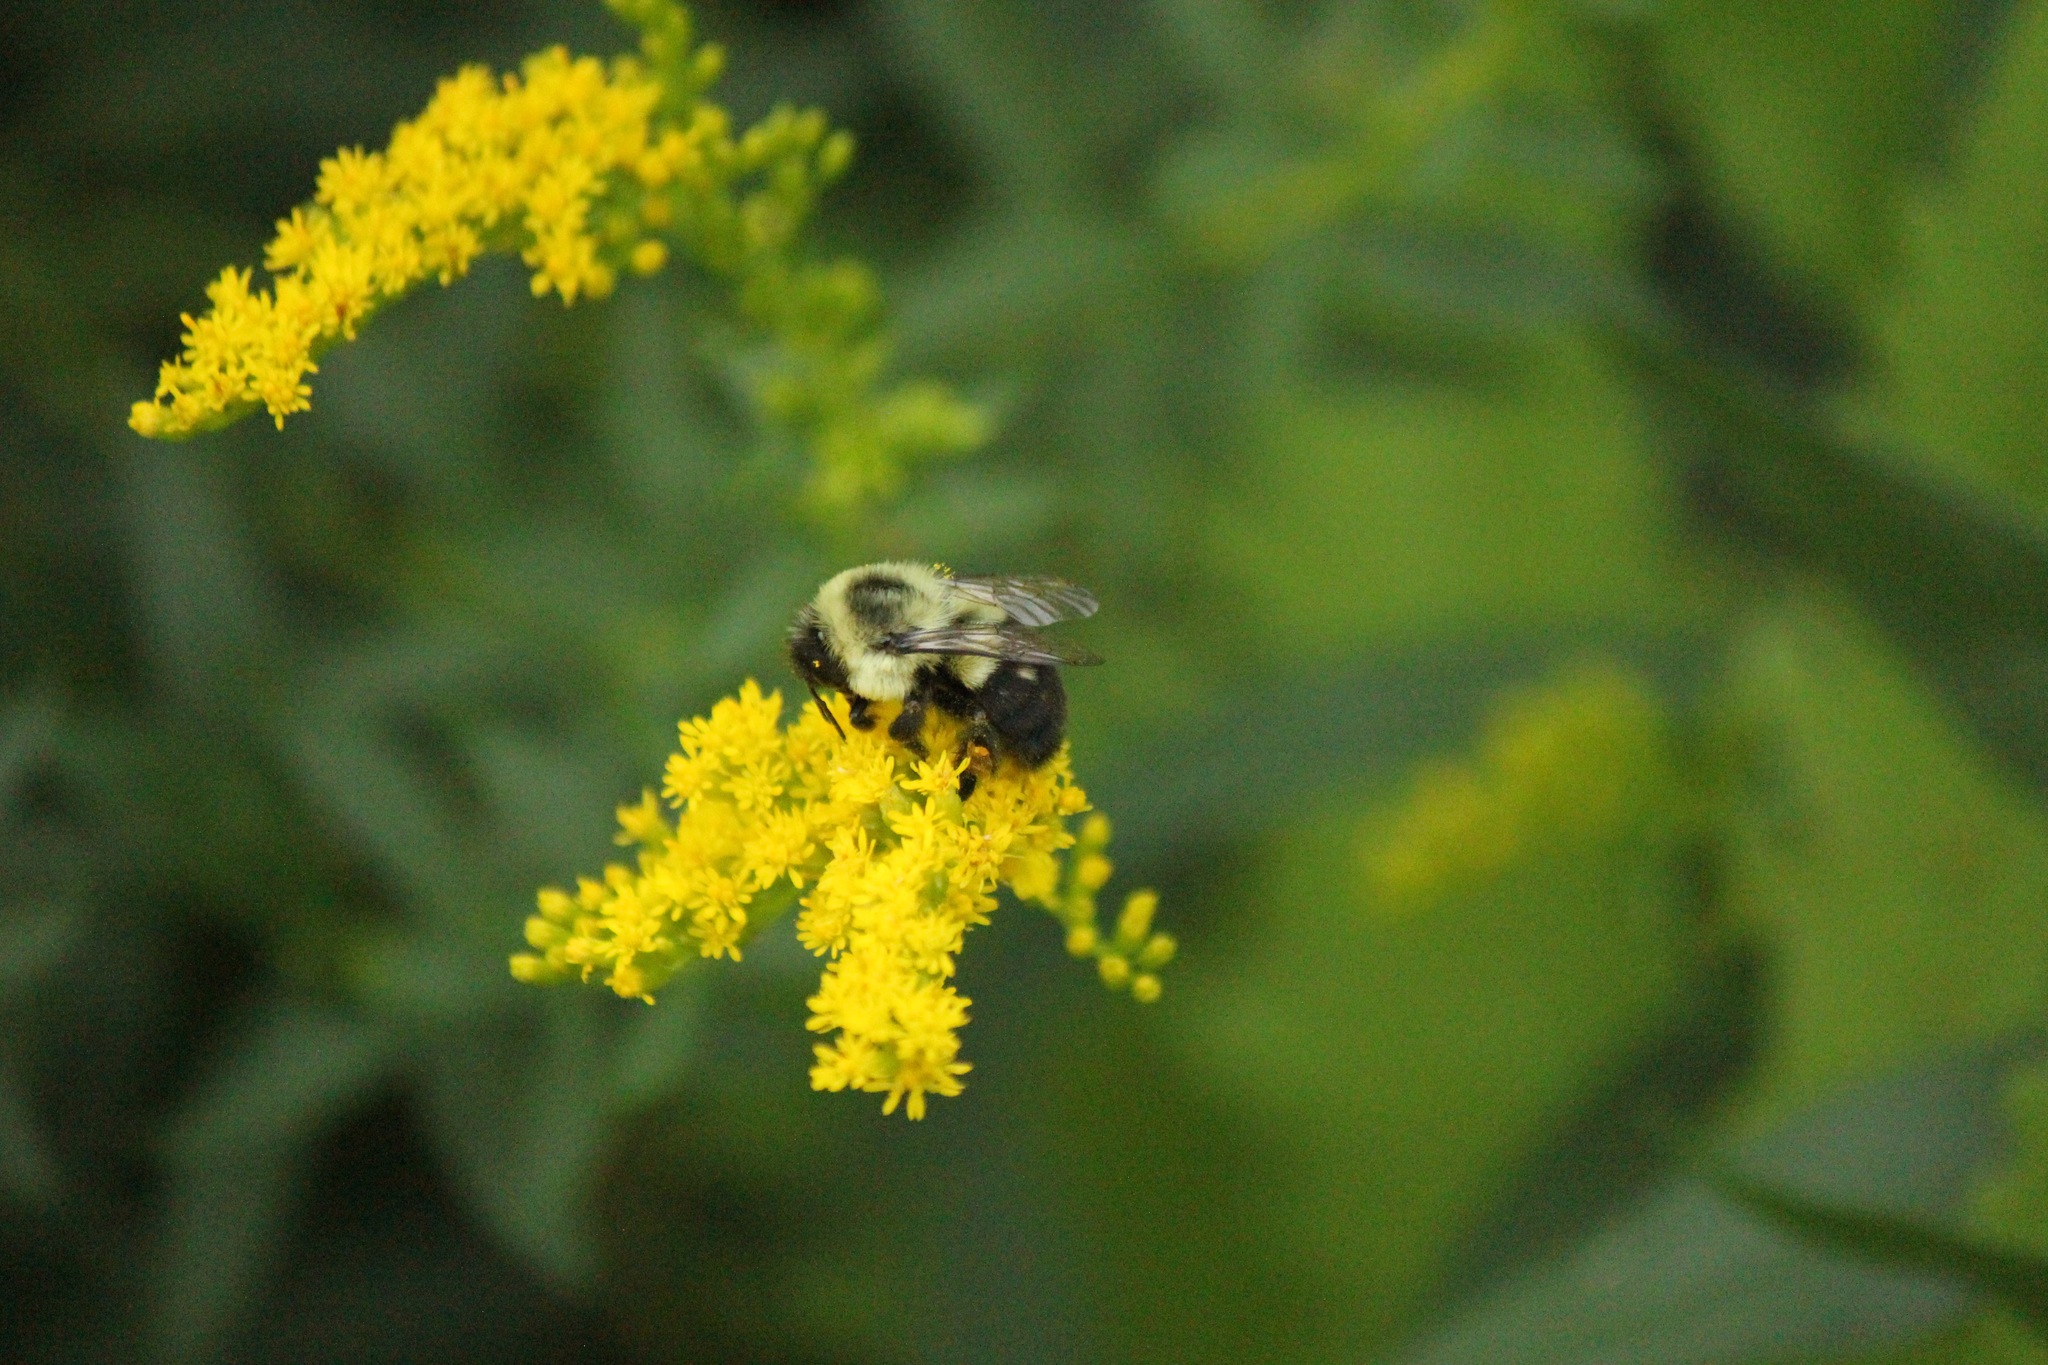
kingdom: Animalia
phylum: Arthropoda
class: Insecta
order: Hymenoptera
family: Apidae
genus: Bombus
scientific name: Bombus impatiens
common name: Common eastern bumble bee
